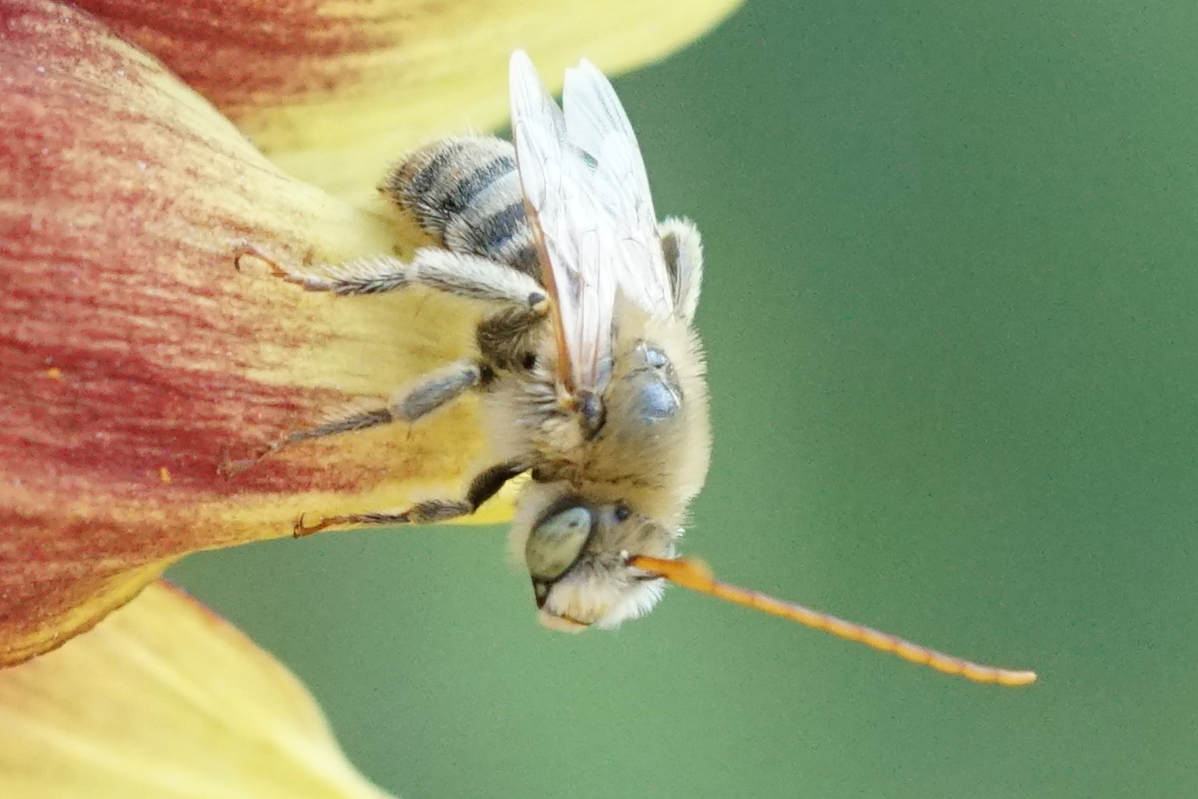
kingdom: Animalia
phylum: Arthropoda
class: Insecta
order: Hymenoptera
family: Apidae
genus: Melissodes
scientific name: Melissodes agilis
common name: Agile long-horned bee
